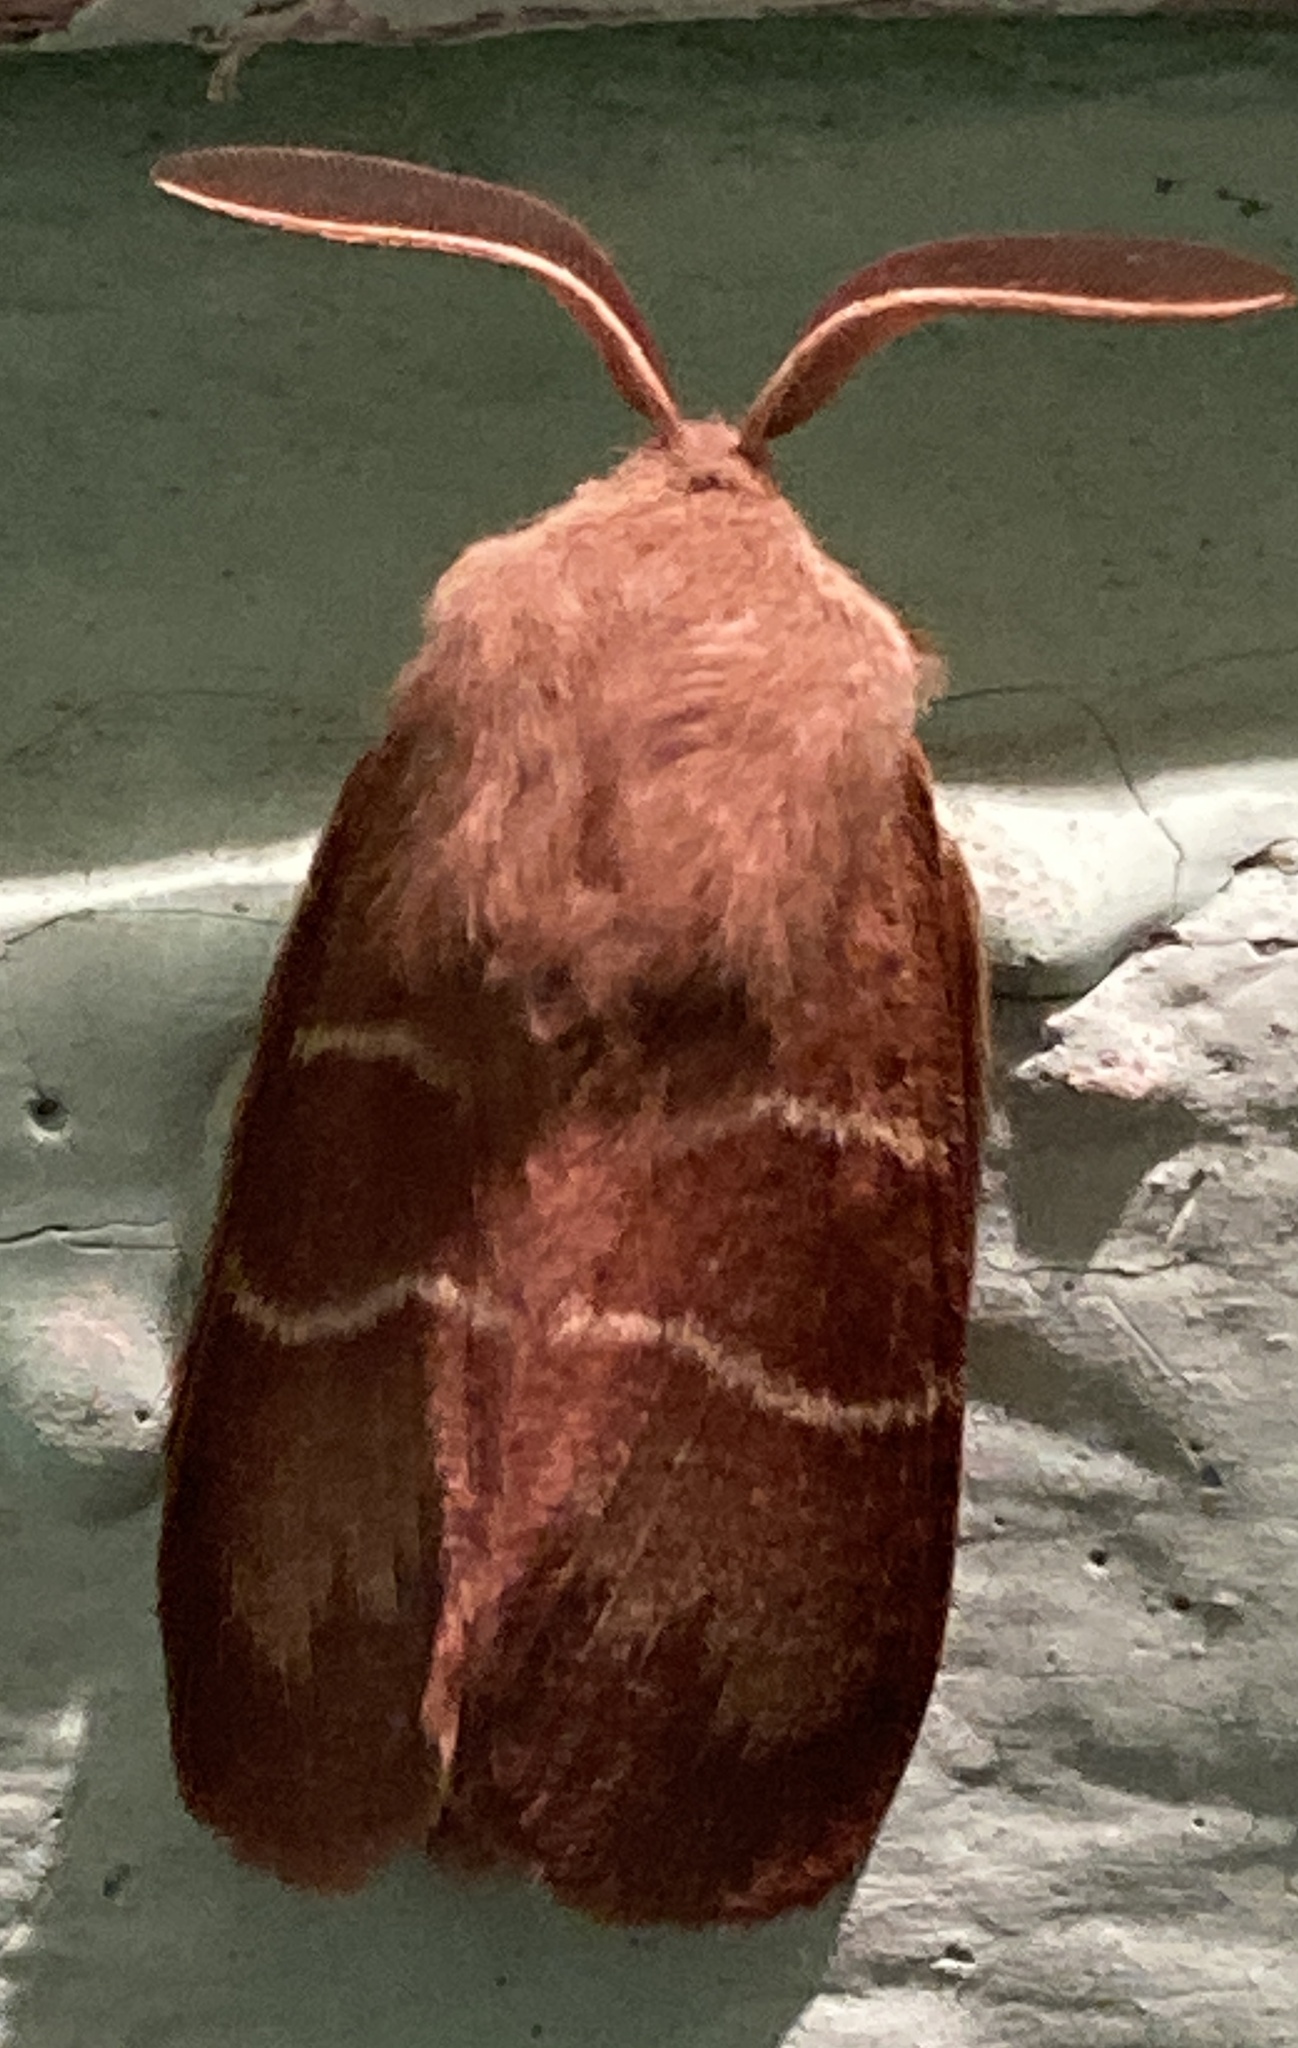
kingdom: Animalia
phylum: Arthropoda
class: Insecta
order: Lepidoptera
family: Lasiocampidae
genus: Macrothylacia
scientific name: Macrothylacia rubi
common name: Fox moth
